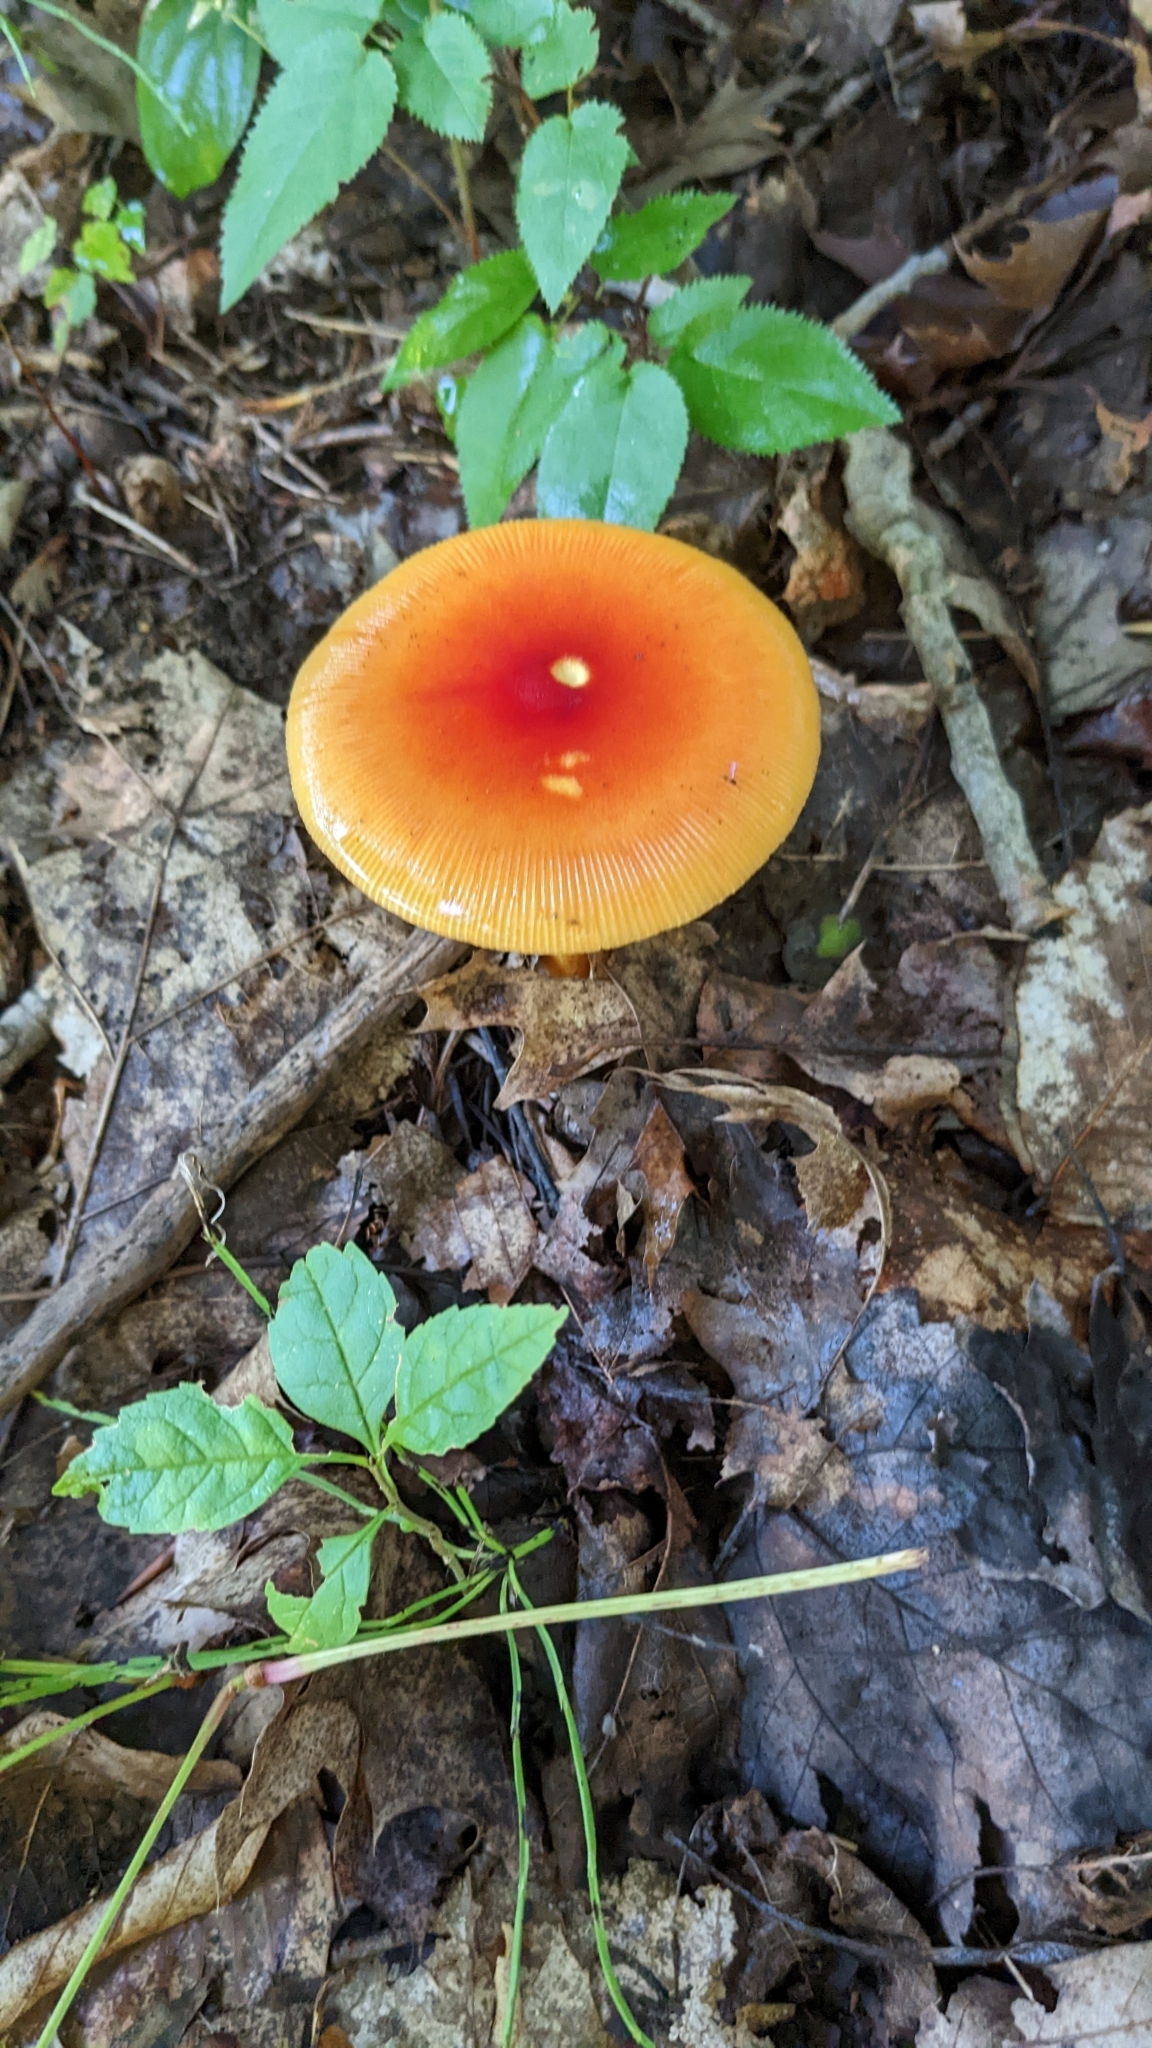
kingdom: Fungi
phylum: Basidiomycota
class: Agaricomycetes
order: Agaricales
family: Amanitaceae
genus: Amanita
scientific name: Amanita jacksonii
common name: Jackson's slender caesar
